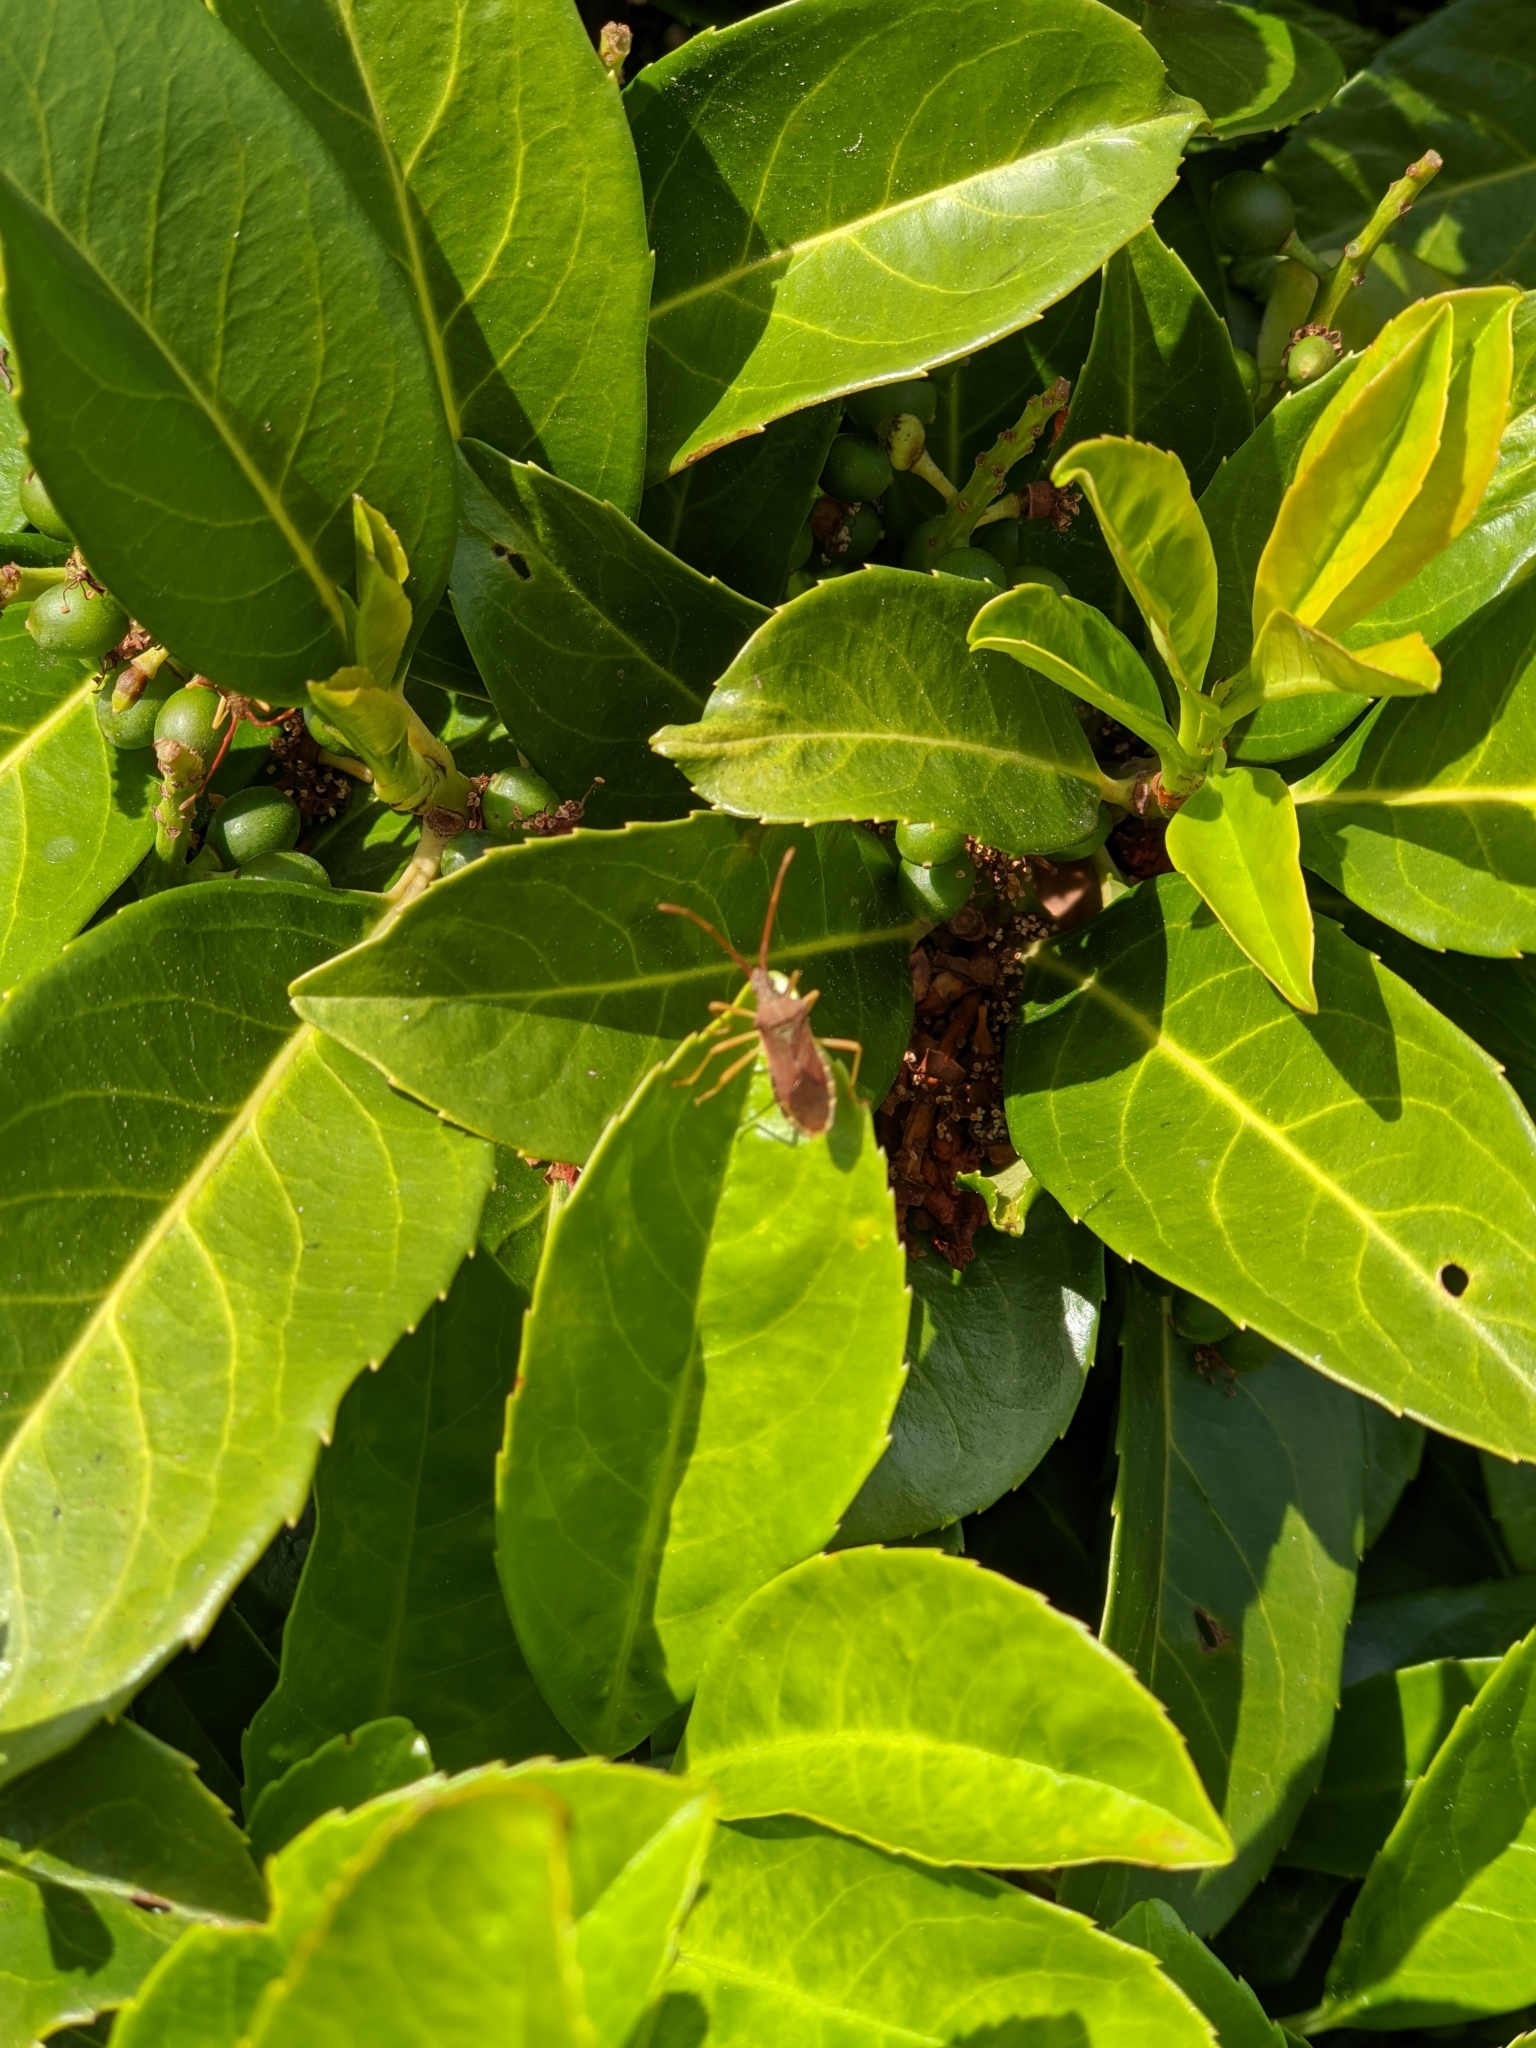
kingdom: Animalia
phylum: Arthropoda
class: Insecta
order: Hemiptera
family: Coreidae
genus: Gonocerus
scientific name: Gonocerus acuteangulatus
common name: Box bug
